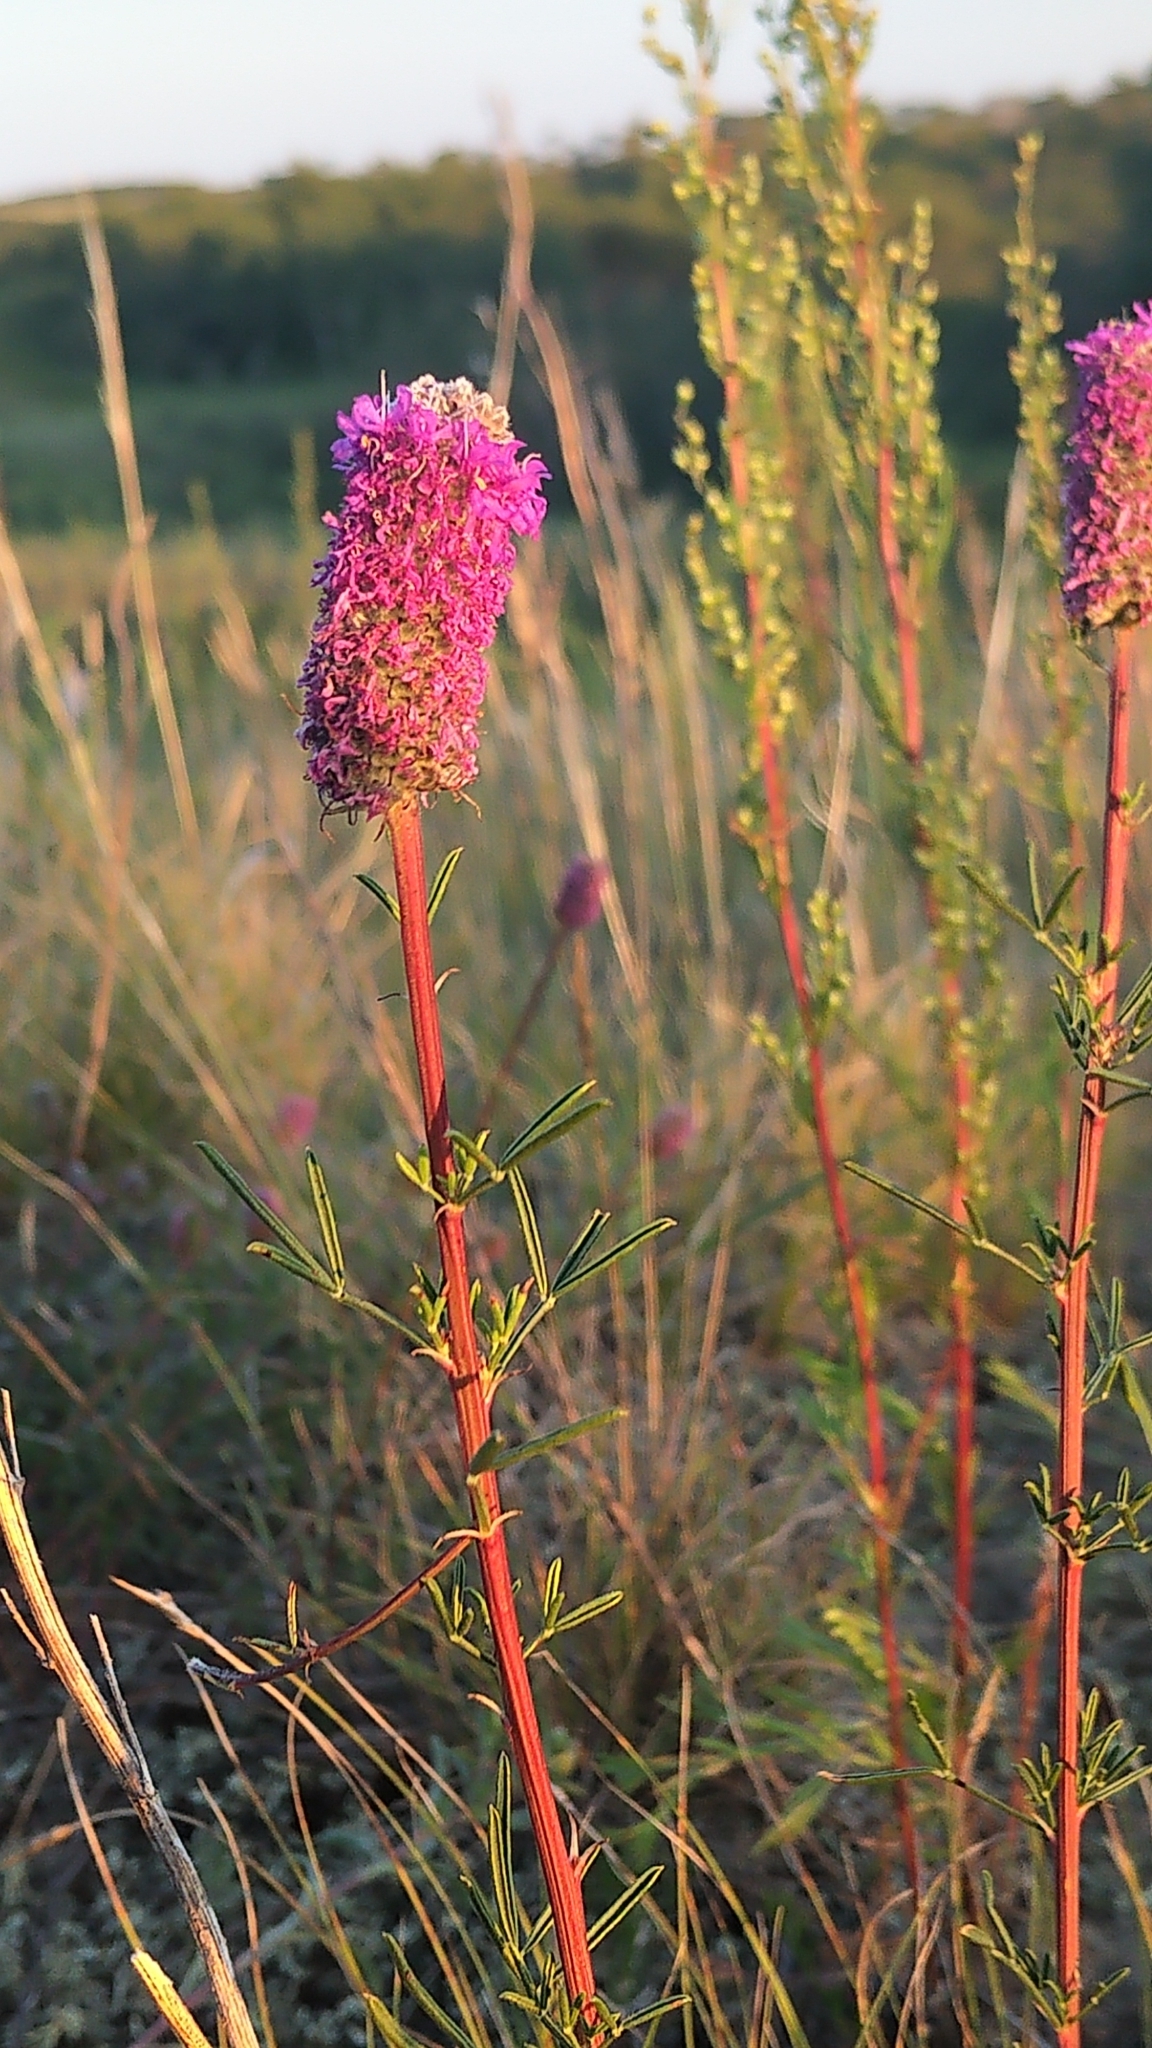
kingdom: Plantae
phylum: Tracheophyta
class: Magnoliopsida
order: Fabales
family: Fabaceae
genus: Dalea
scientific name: Dalea purpurea
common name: Purple prairie-clover
